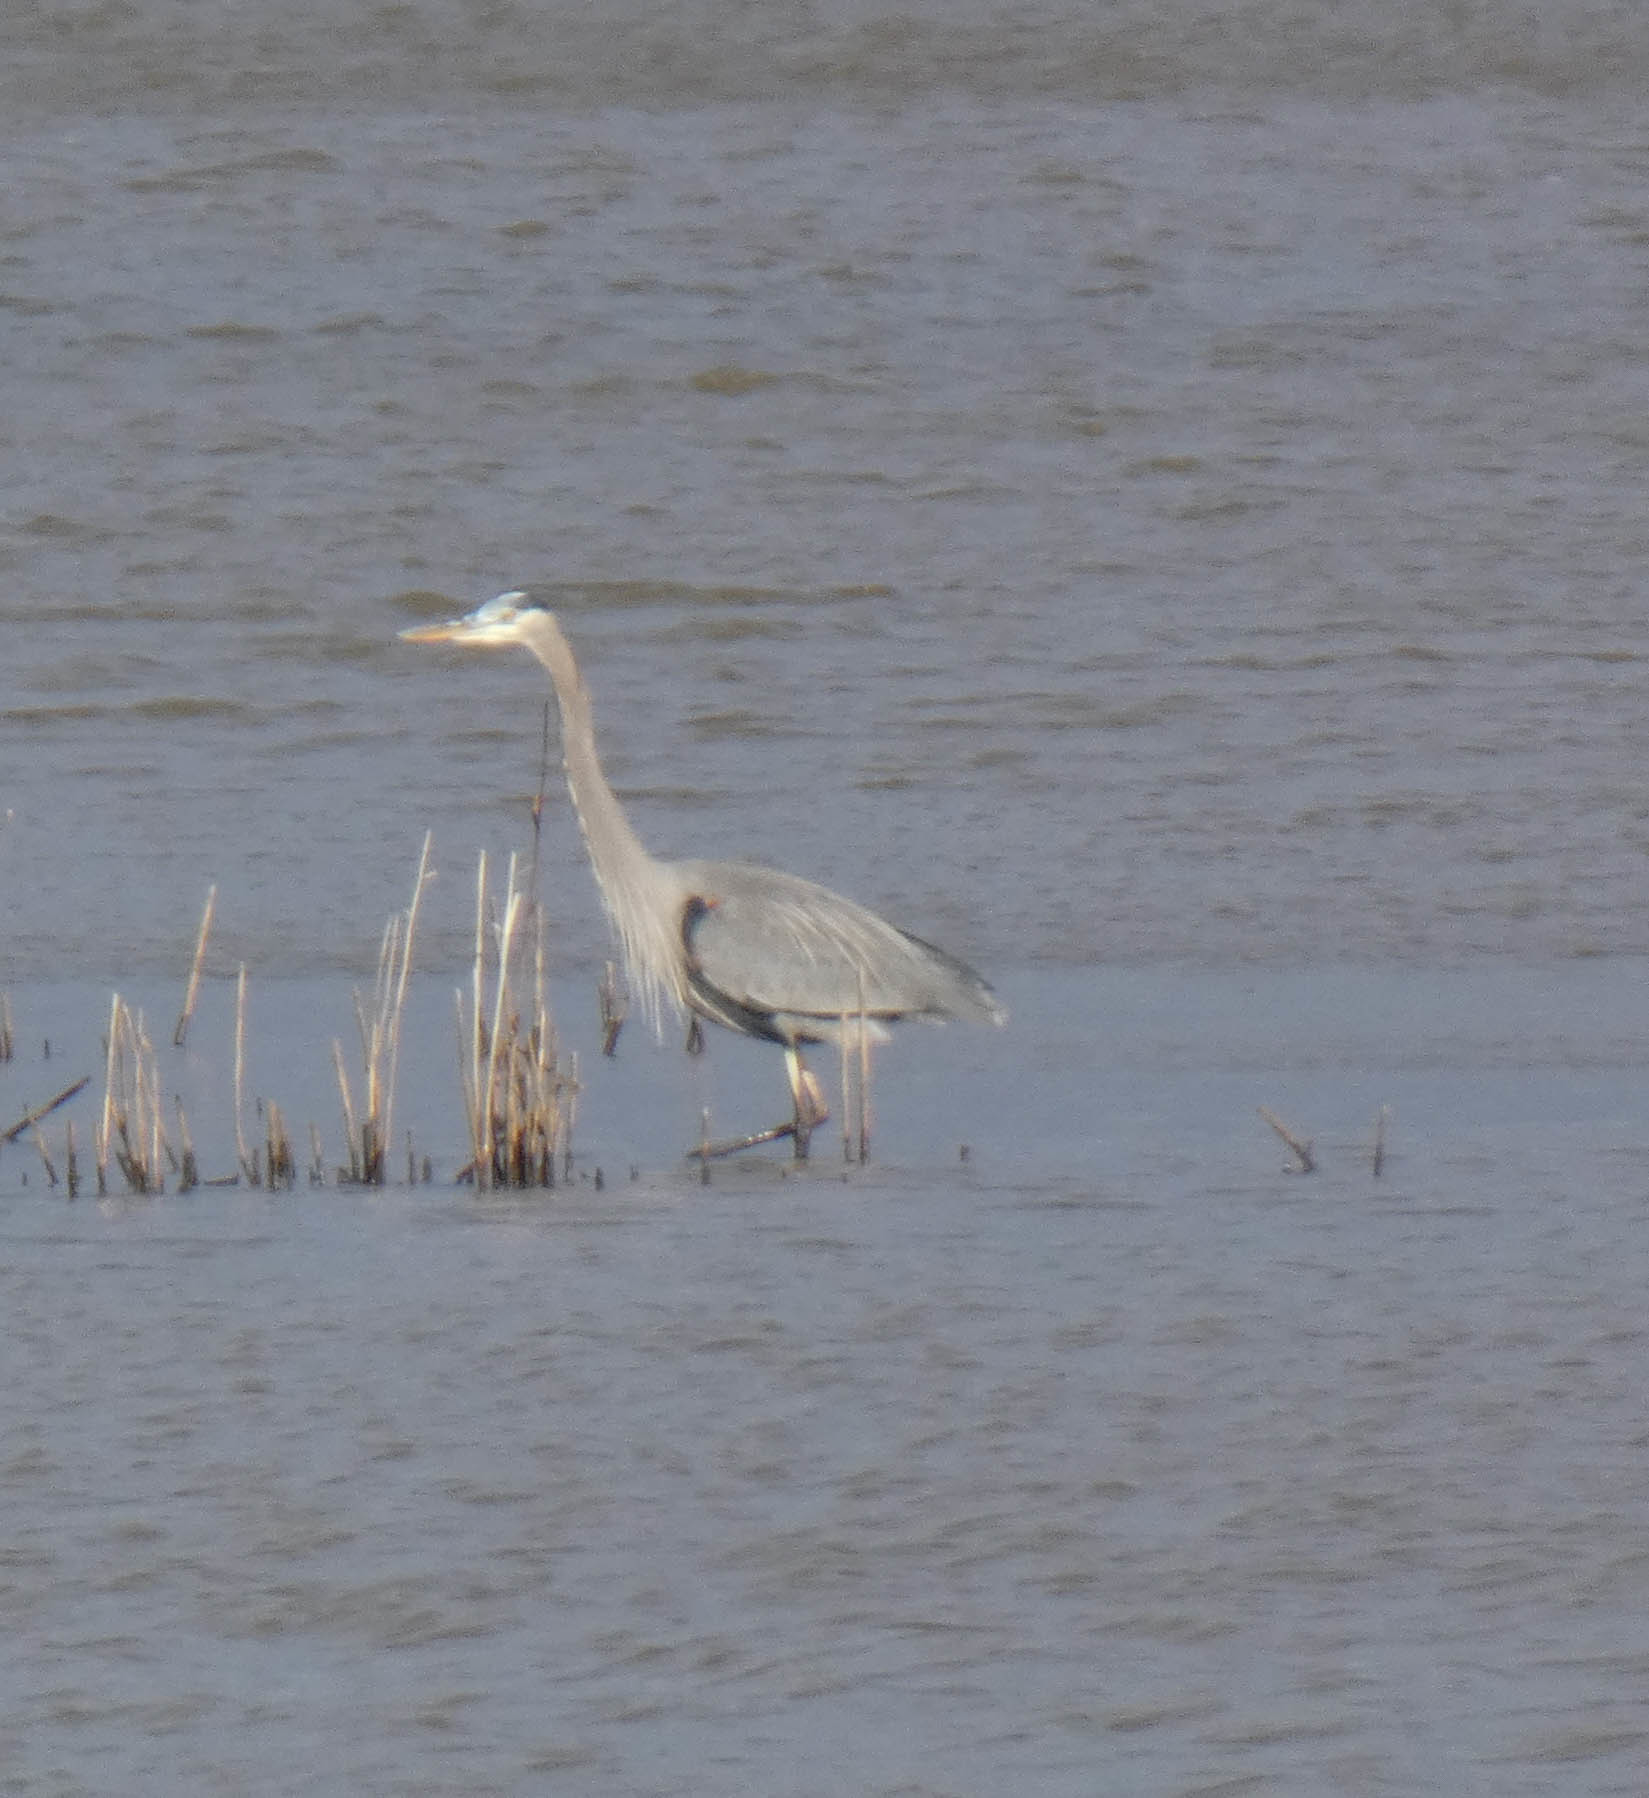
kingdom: Animalia
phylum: Chordata
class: Aves
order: Pelecaniformes
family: Ardeidae
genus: Ardea
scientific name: Ardea herodias
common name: Great blue heron
